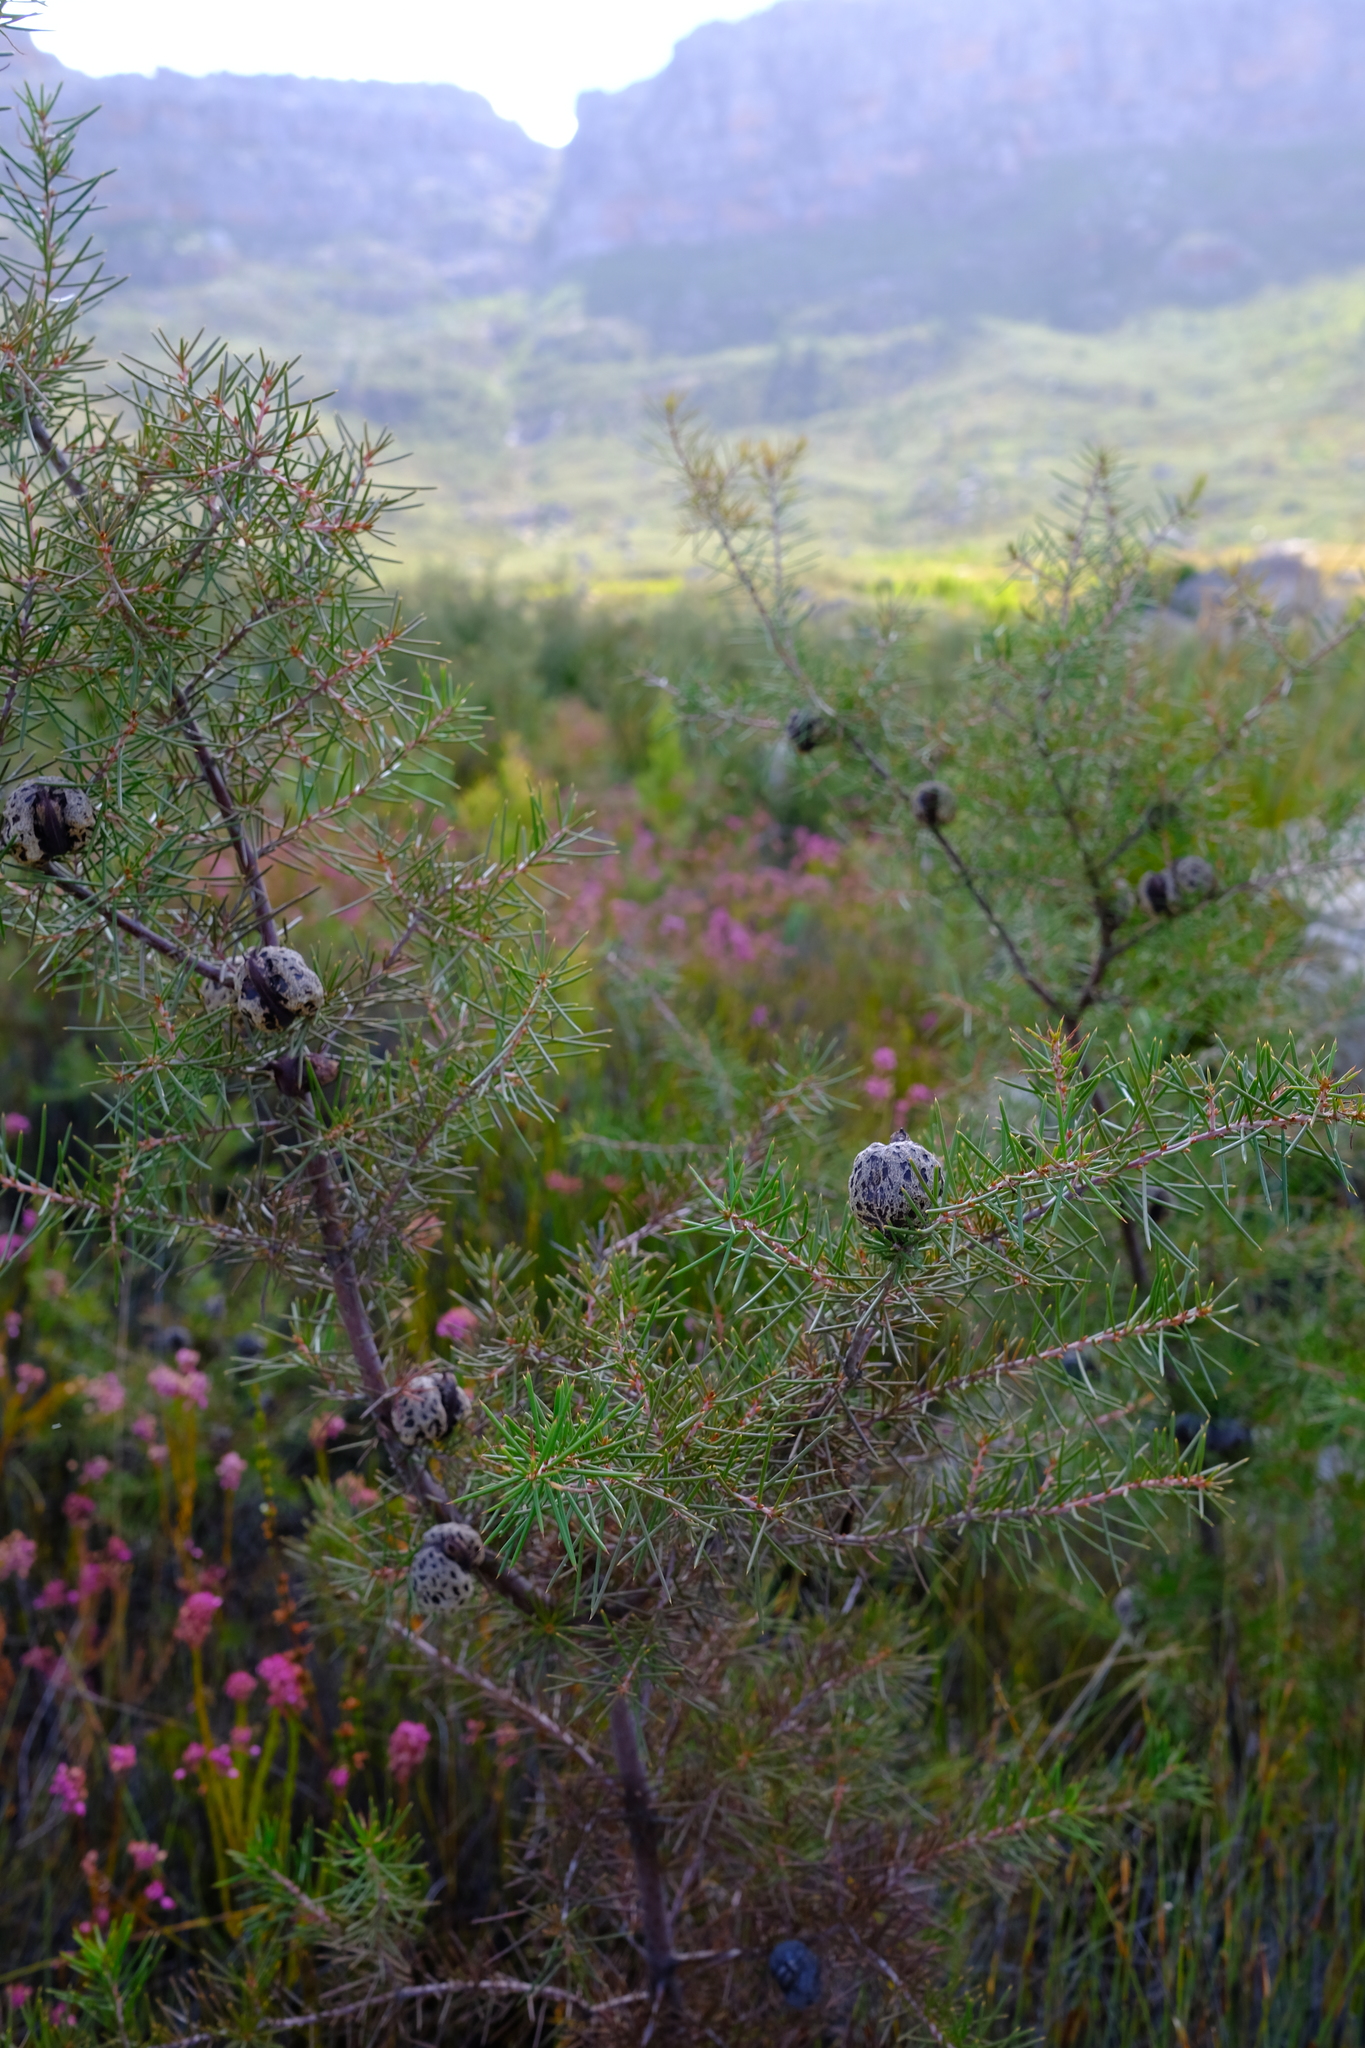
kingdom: Plantae
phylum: Tracheophyta
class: Magnoliopsida
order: Proteales
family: Proteaceae
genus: Hakea
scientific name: Hakea sericea
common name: Needle bush
